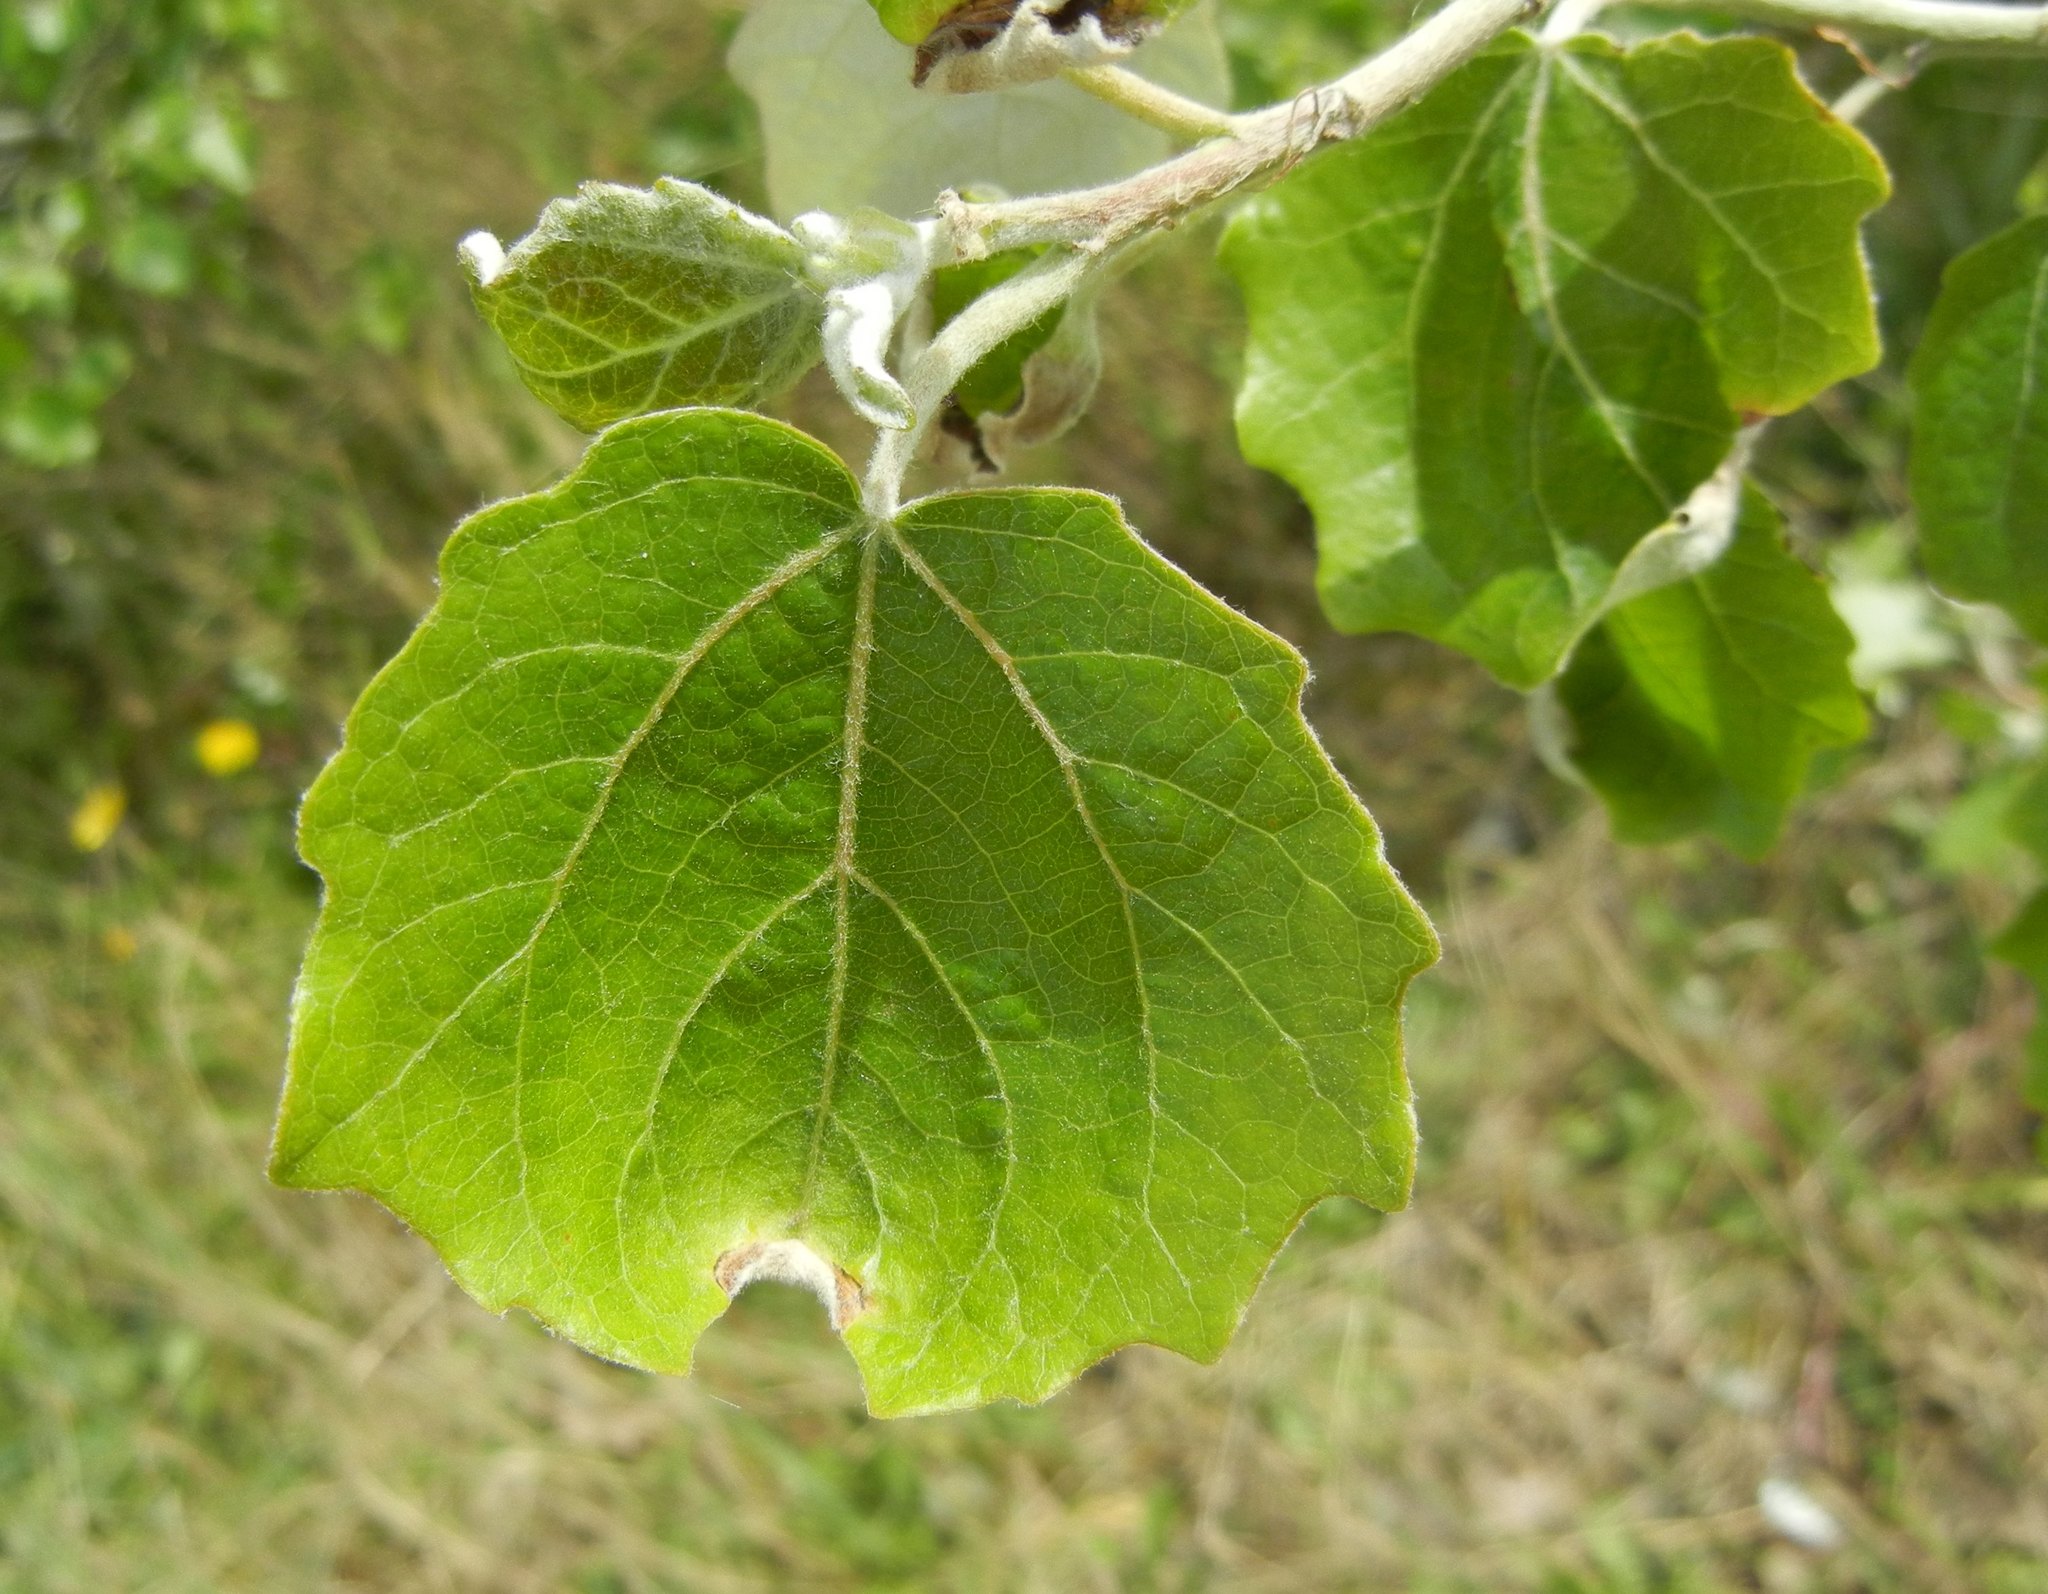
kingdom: Plantae
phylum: Tracheophyta
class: Magnoliopsida
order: Malpighiales
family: Salicaceae
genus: Populus
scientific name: Populus alba
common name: White poplar
